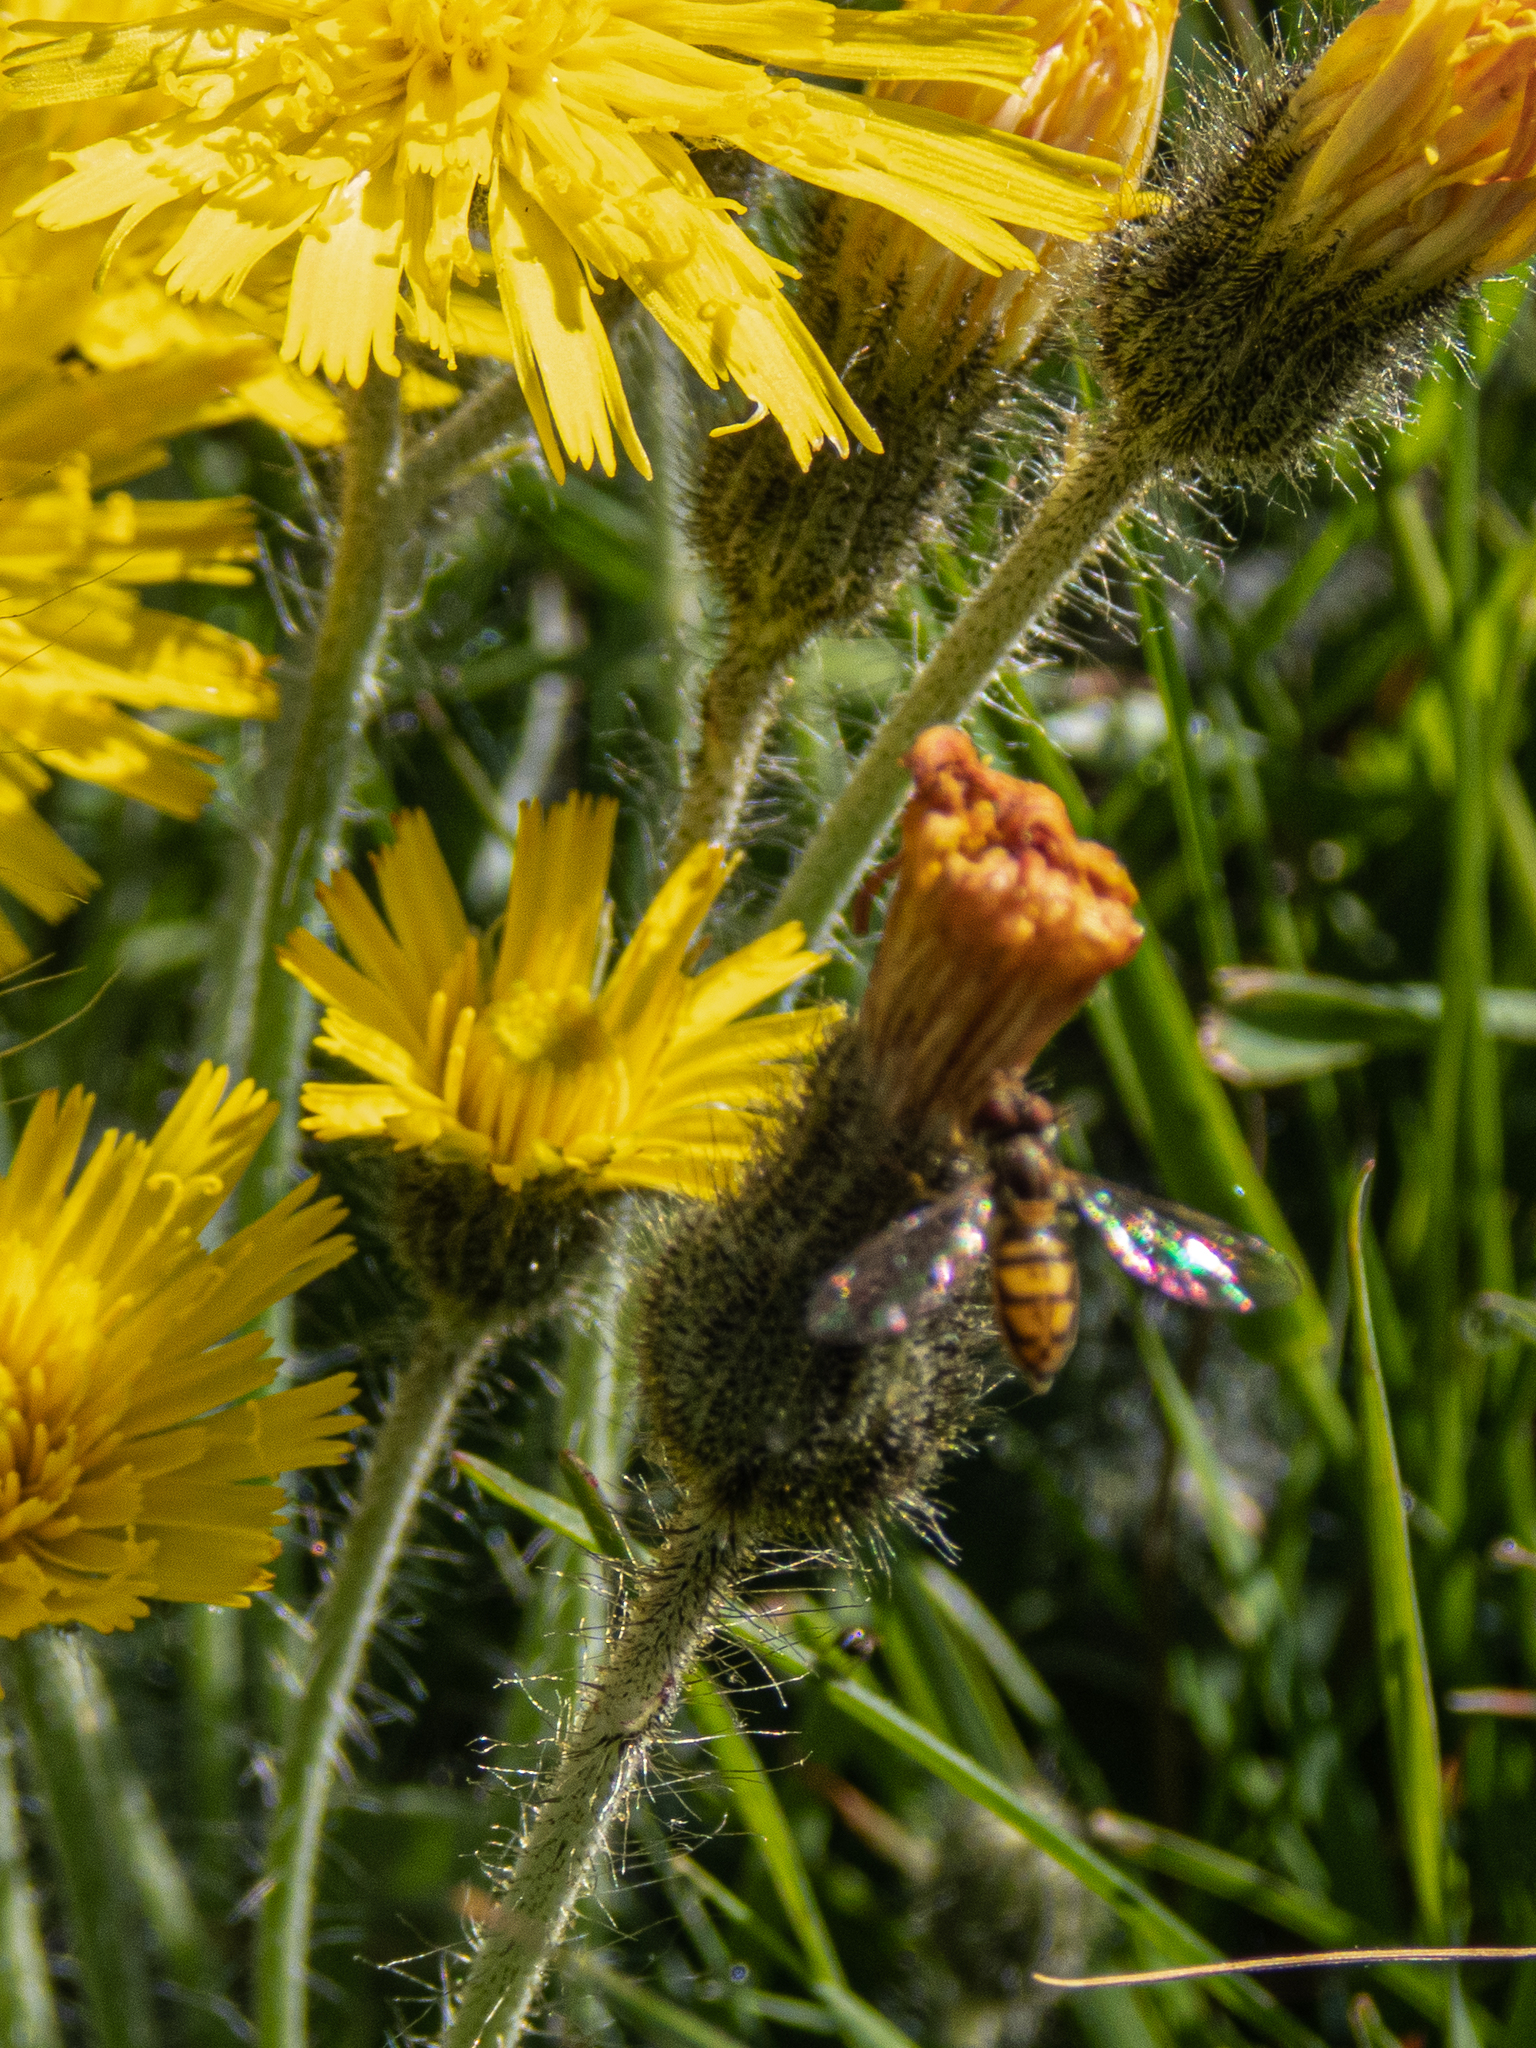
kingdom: Plantae
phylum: Tracheophyta
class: Magnoliopsida
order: Asterales
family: Asteraceae
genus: Pilosella
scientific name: Pilosella caespitosa
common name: Yellow fox-and-cubs
